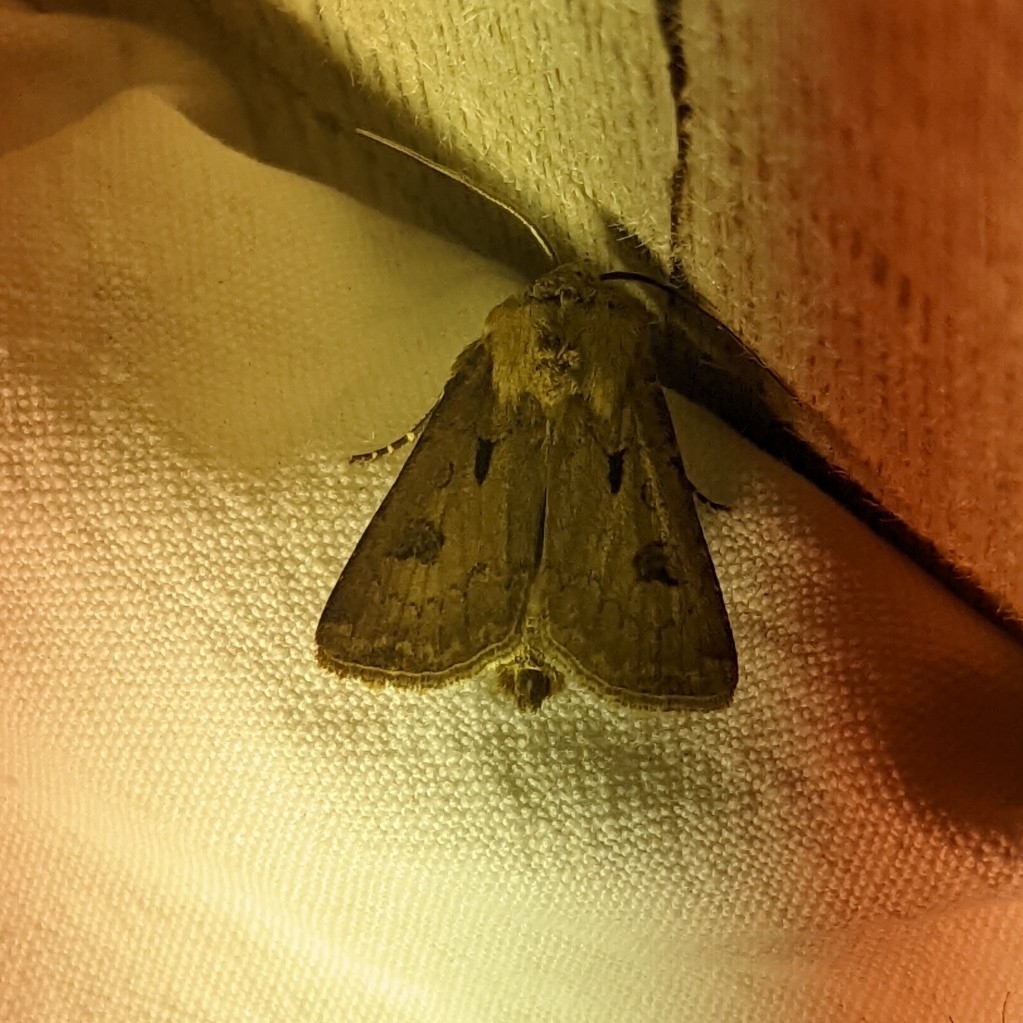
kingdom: Animalia
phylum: Arthropoda
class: Insecta
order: Lepidoptera
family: Noctuidae
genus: Agrotis
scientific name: Agrotis exclamationis
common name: Heart and dart
